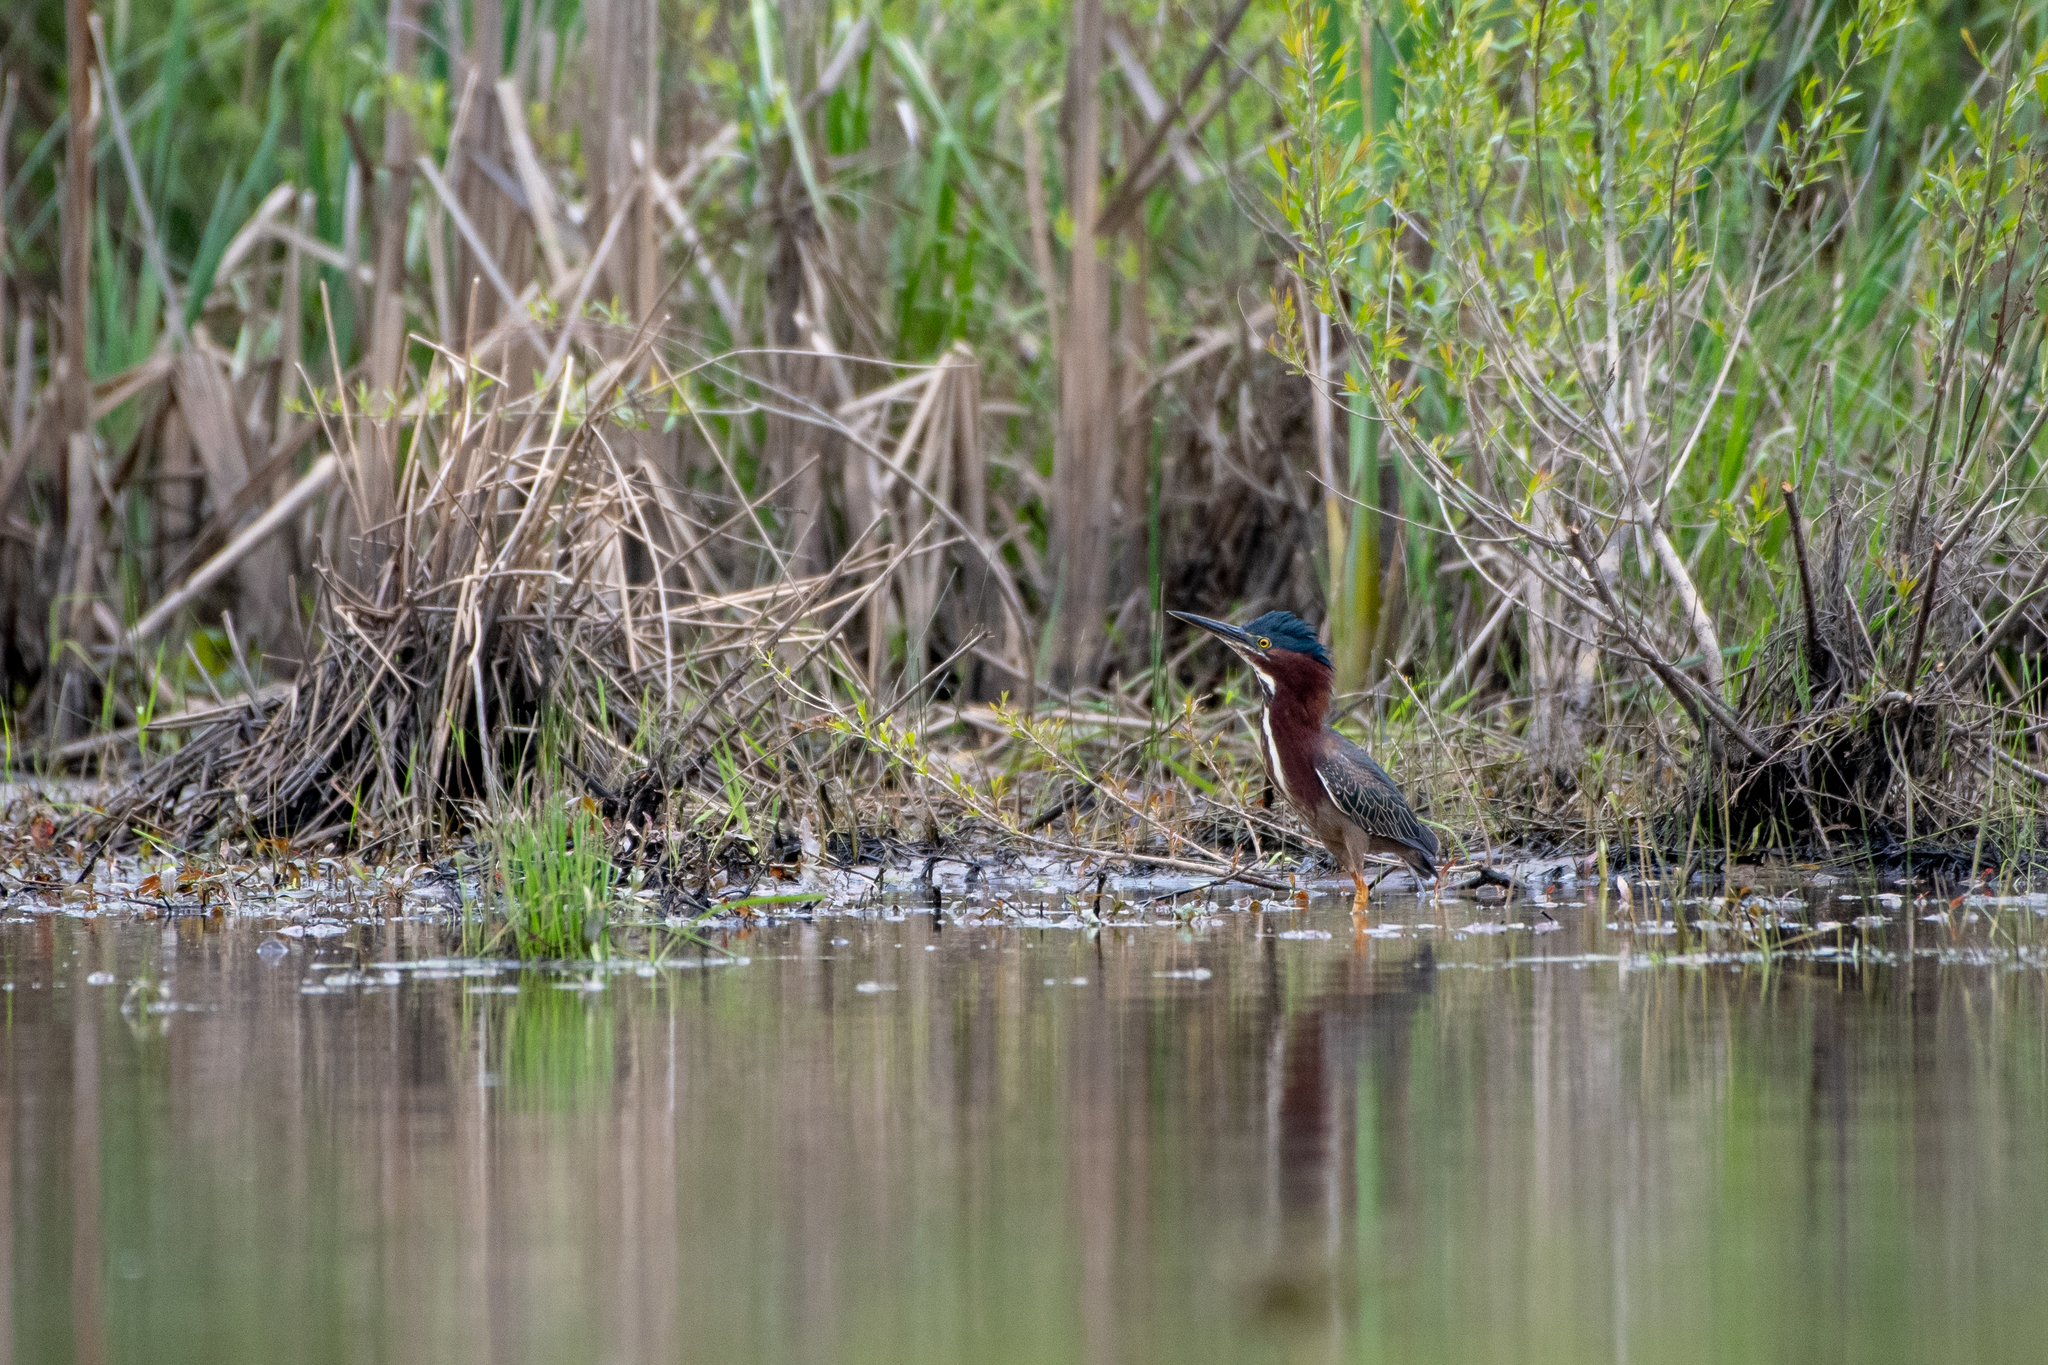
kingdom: Animalia
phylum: Chordata
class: Aves
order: Pelecaniformes
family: Ardeidae
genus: Butorides
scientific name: Butorides virescens
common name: Green heron
